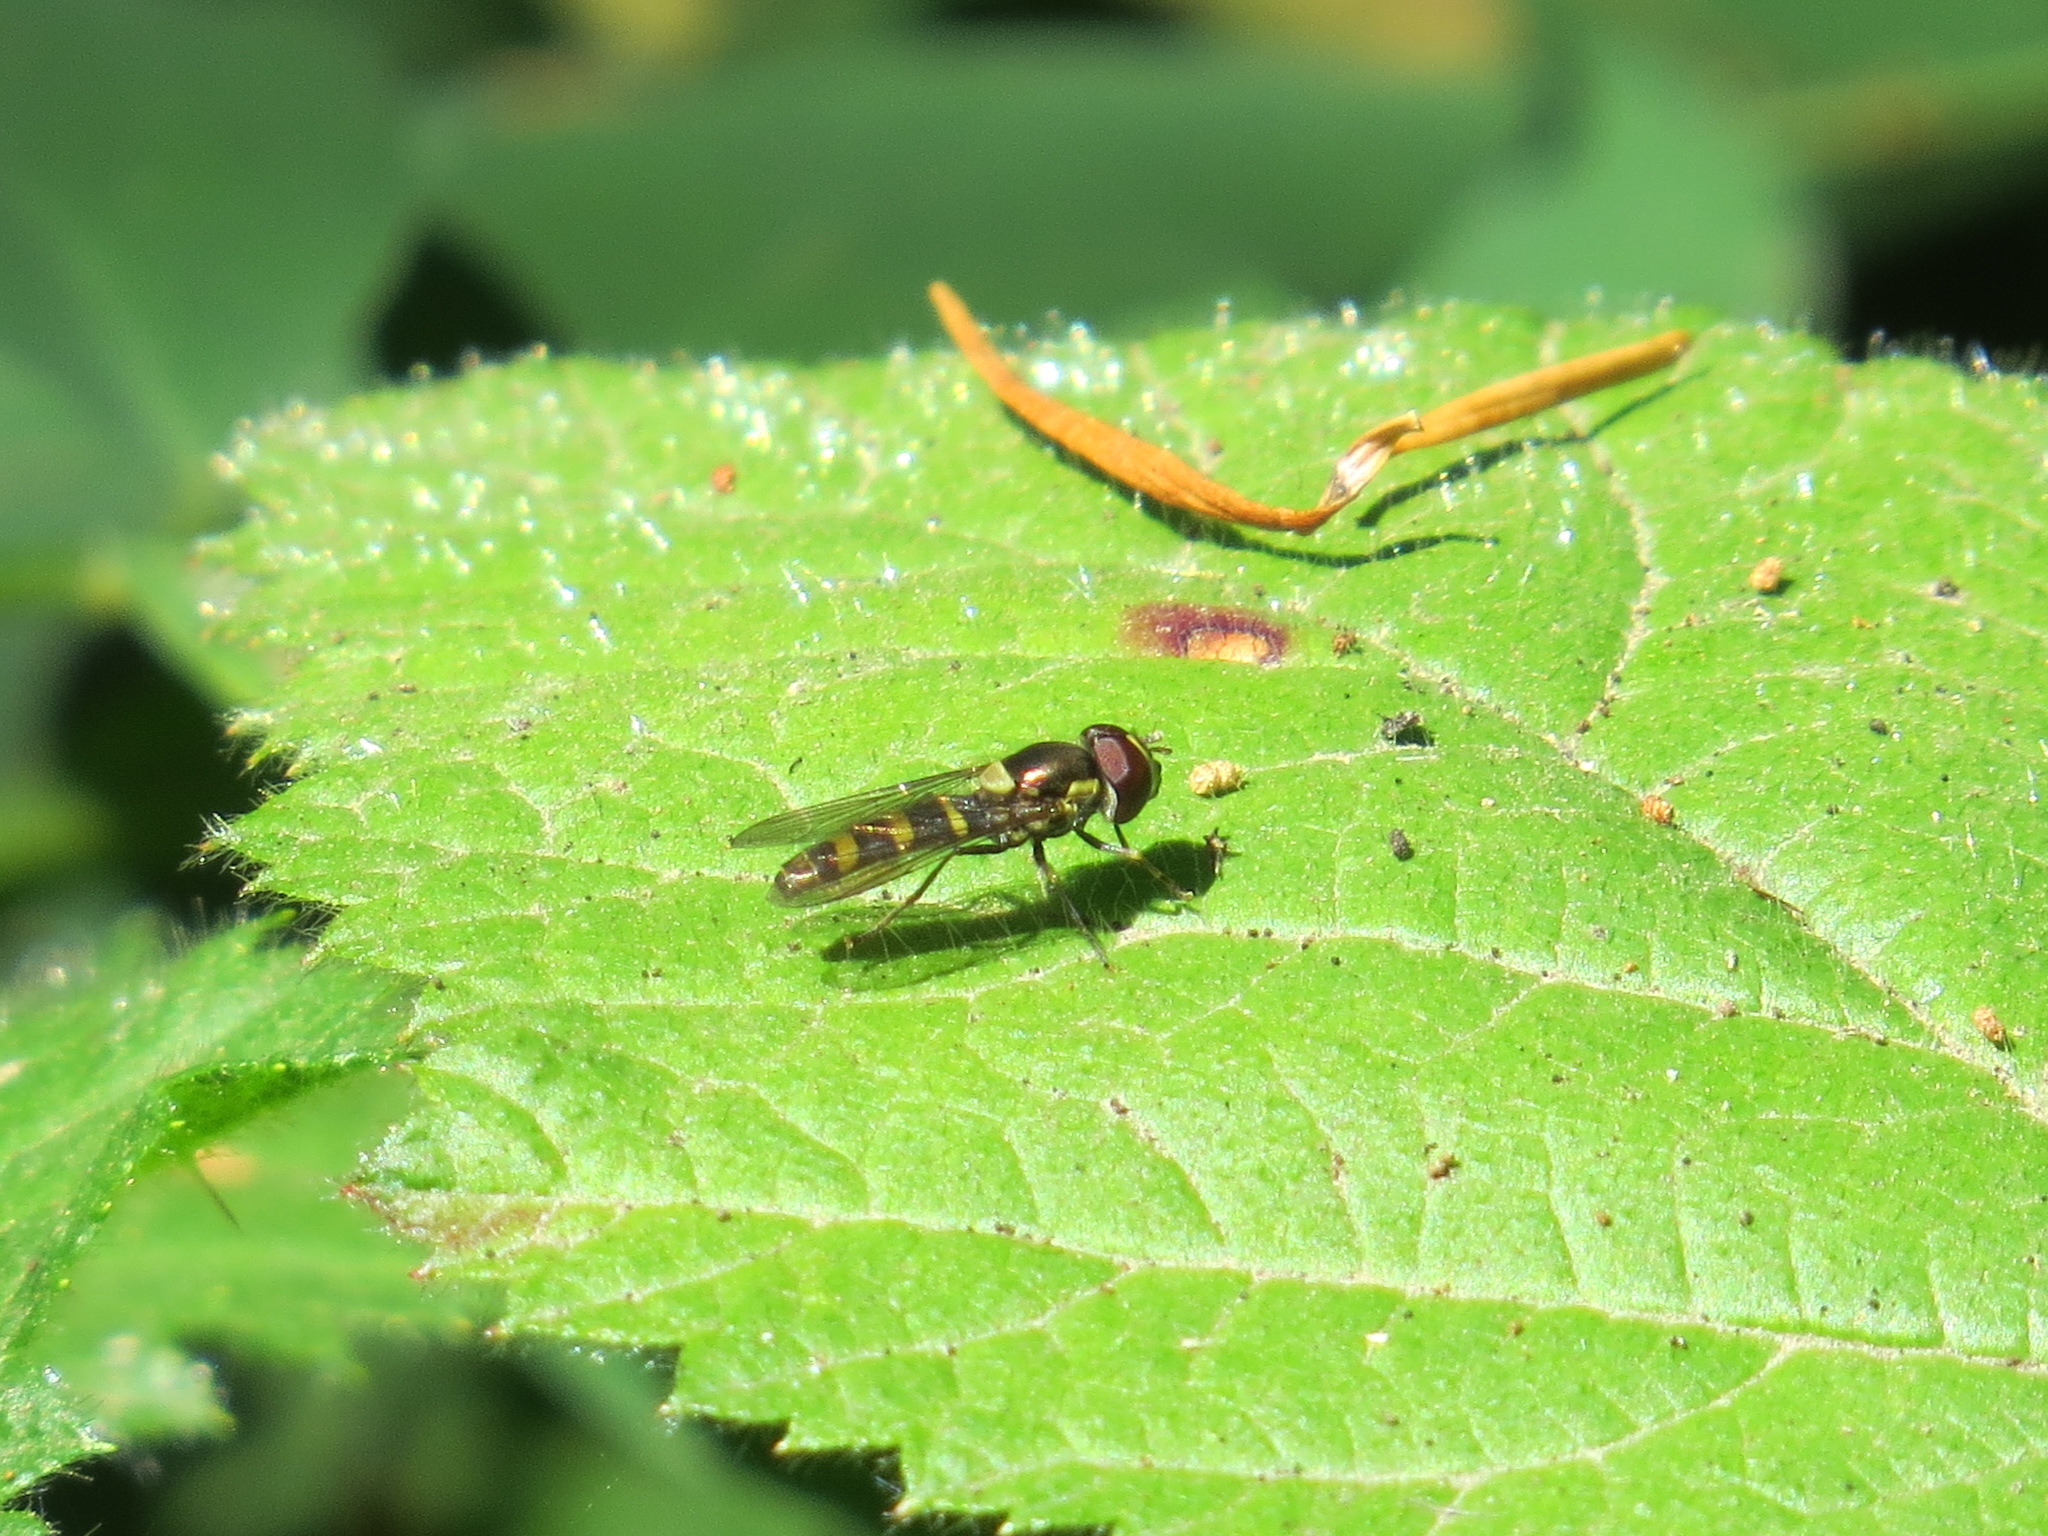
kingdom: Animalia
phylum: Arthropoda
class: Insecta
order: Diptera
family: Syrphidae
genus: Fazia
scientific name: Fazia micrura
